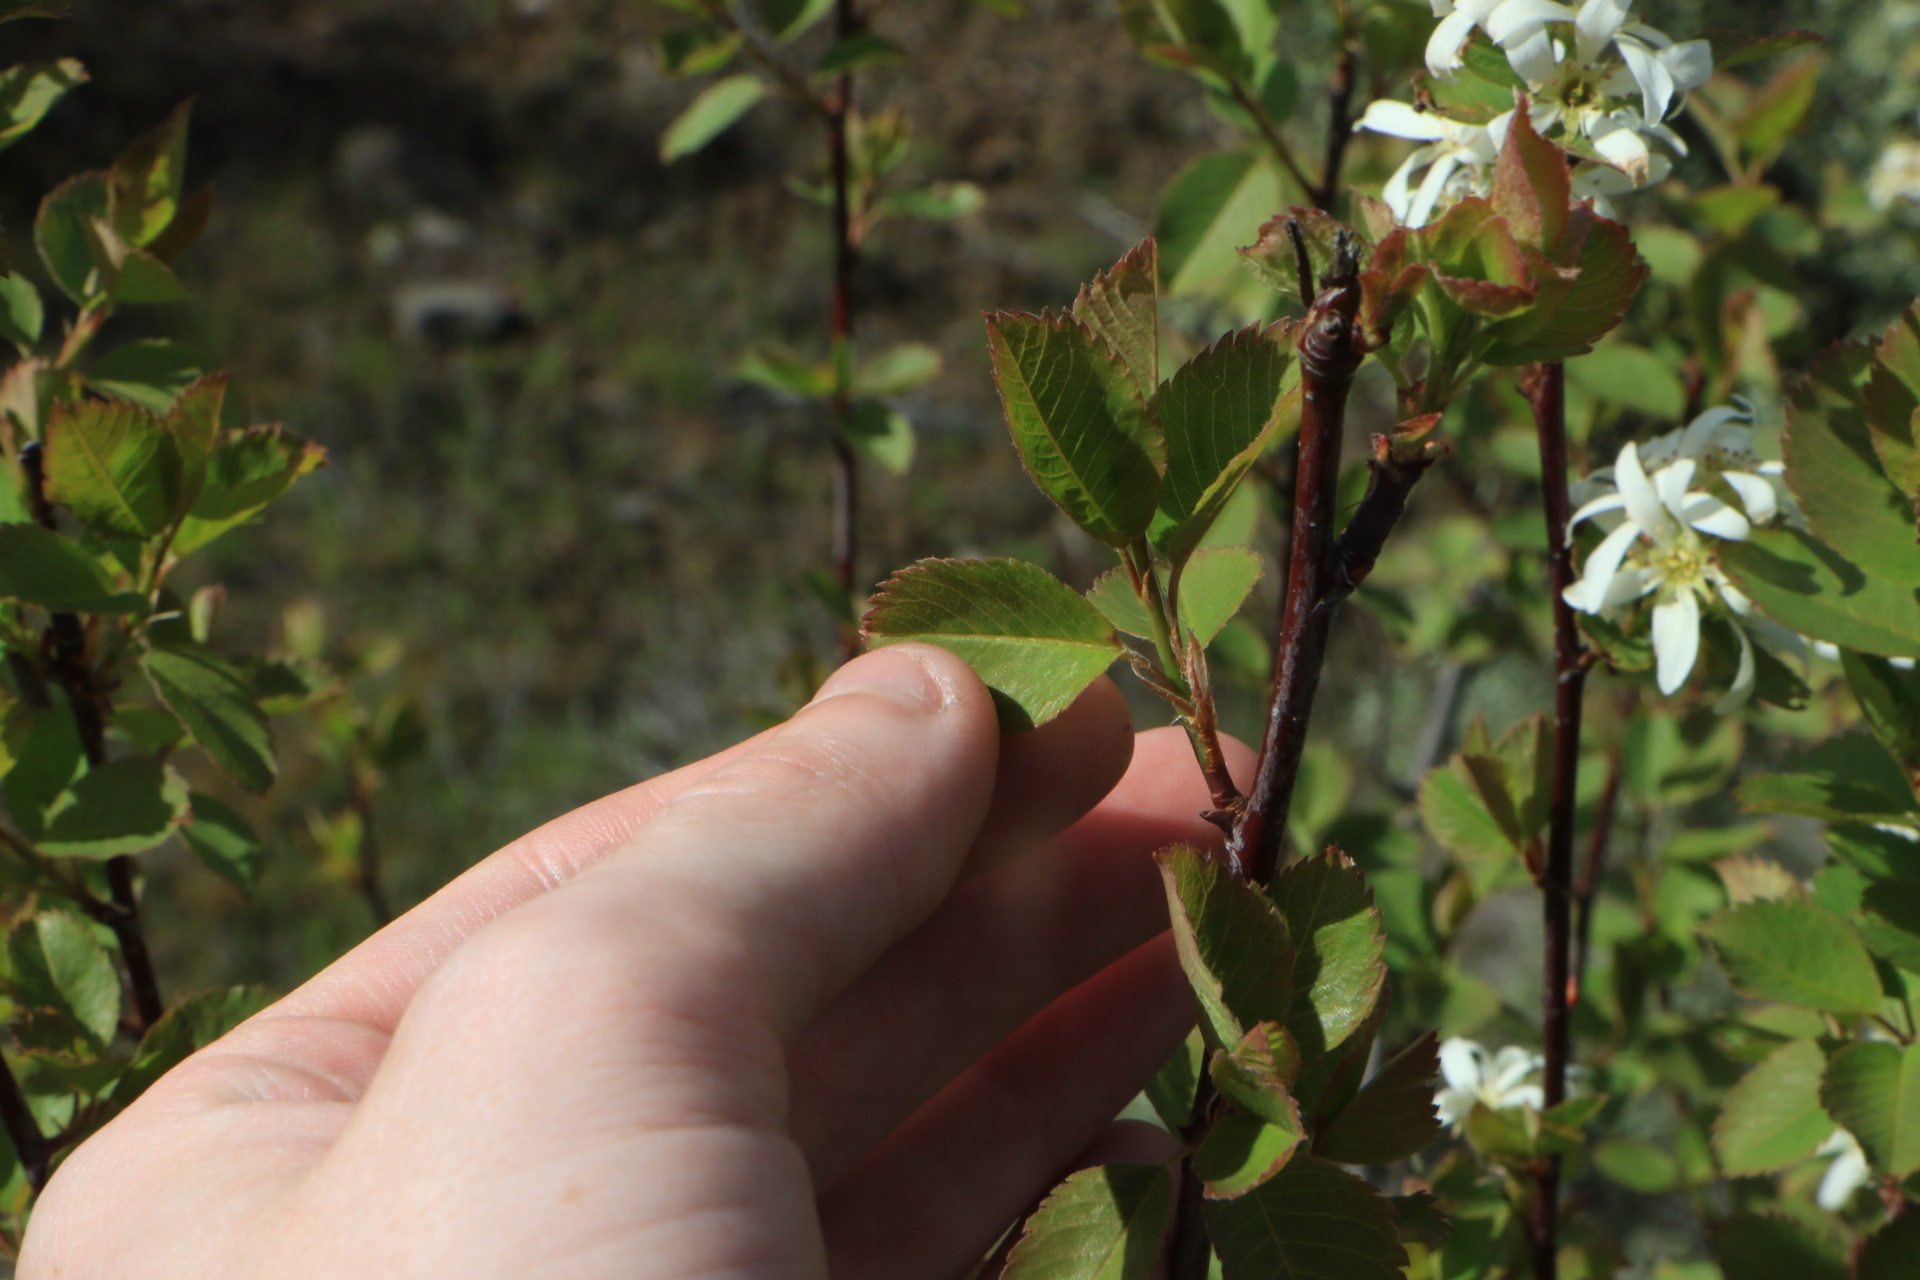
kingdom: Plantae
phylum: Tracheophyta
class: Magnoliopsida
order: Rosales
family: Rosaceae
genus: Amelanchier
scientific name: Amelanchier alnifolia
